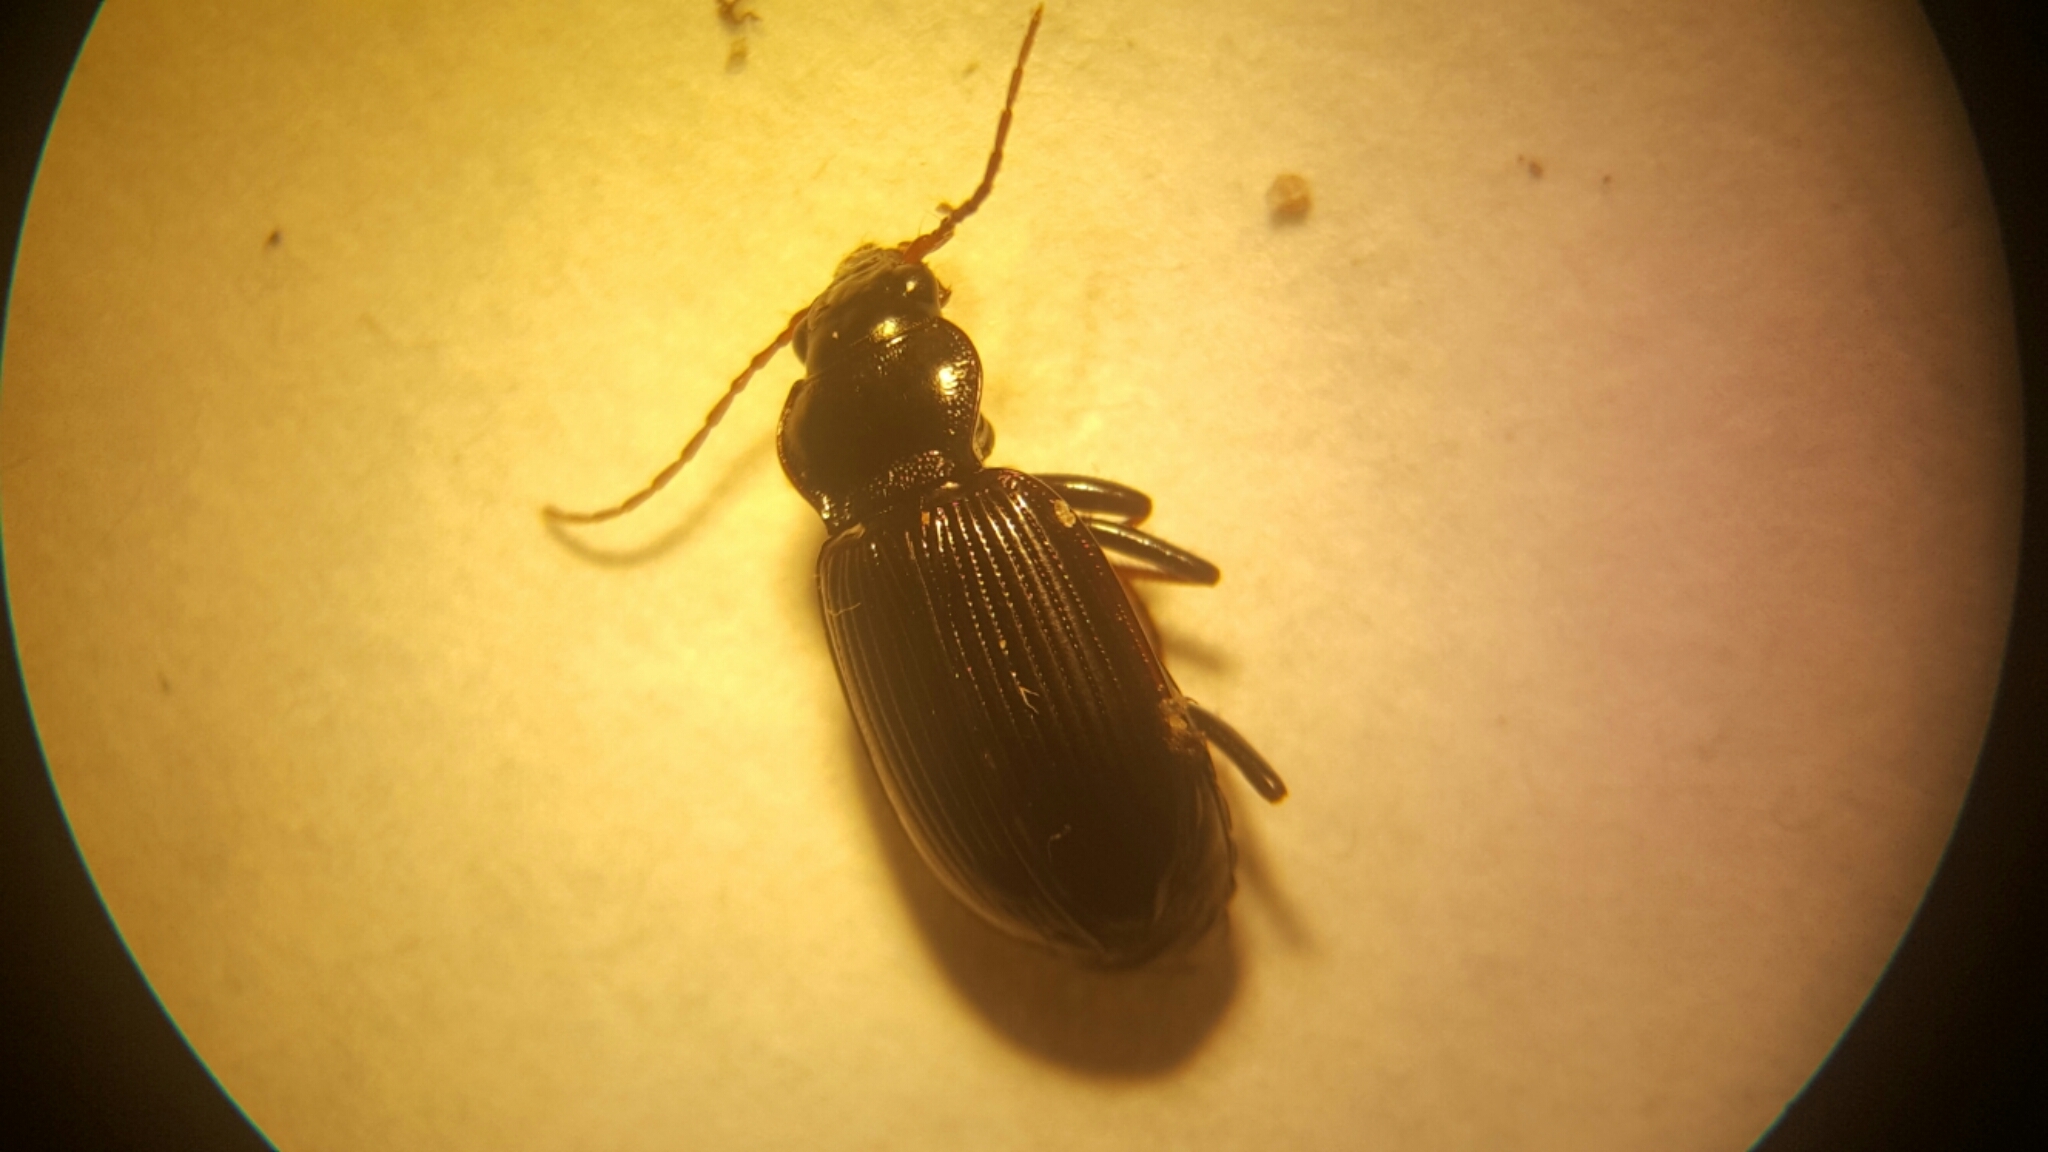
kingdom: Animalia
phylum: Arthropoda
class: Insecta
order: Coleoptera
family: Carabidae
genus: Nebria
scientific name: Nebria brevicollis
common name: Short-necked gazelle beetle
